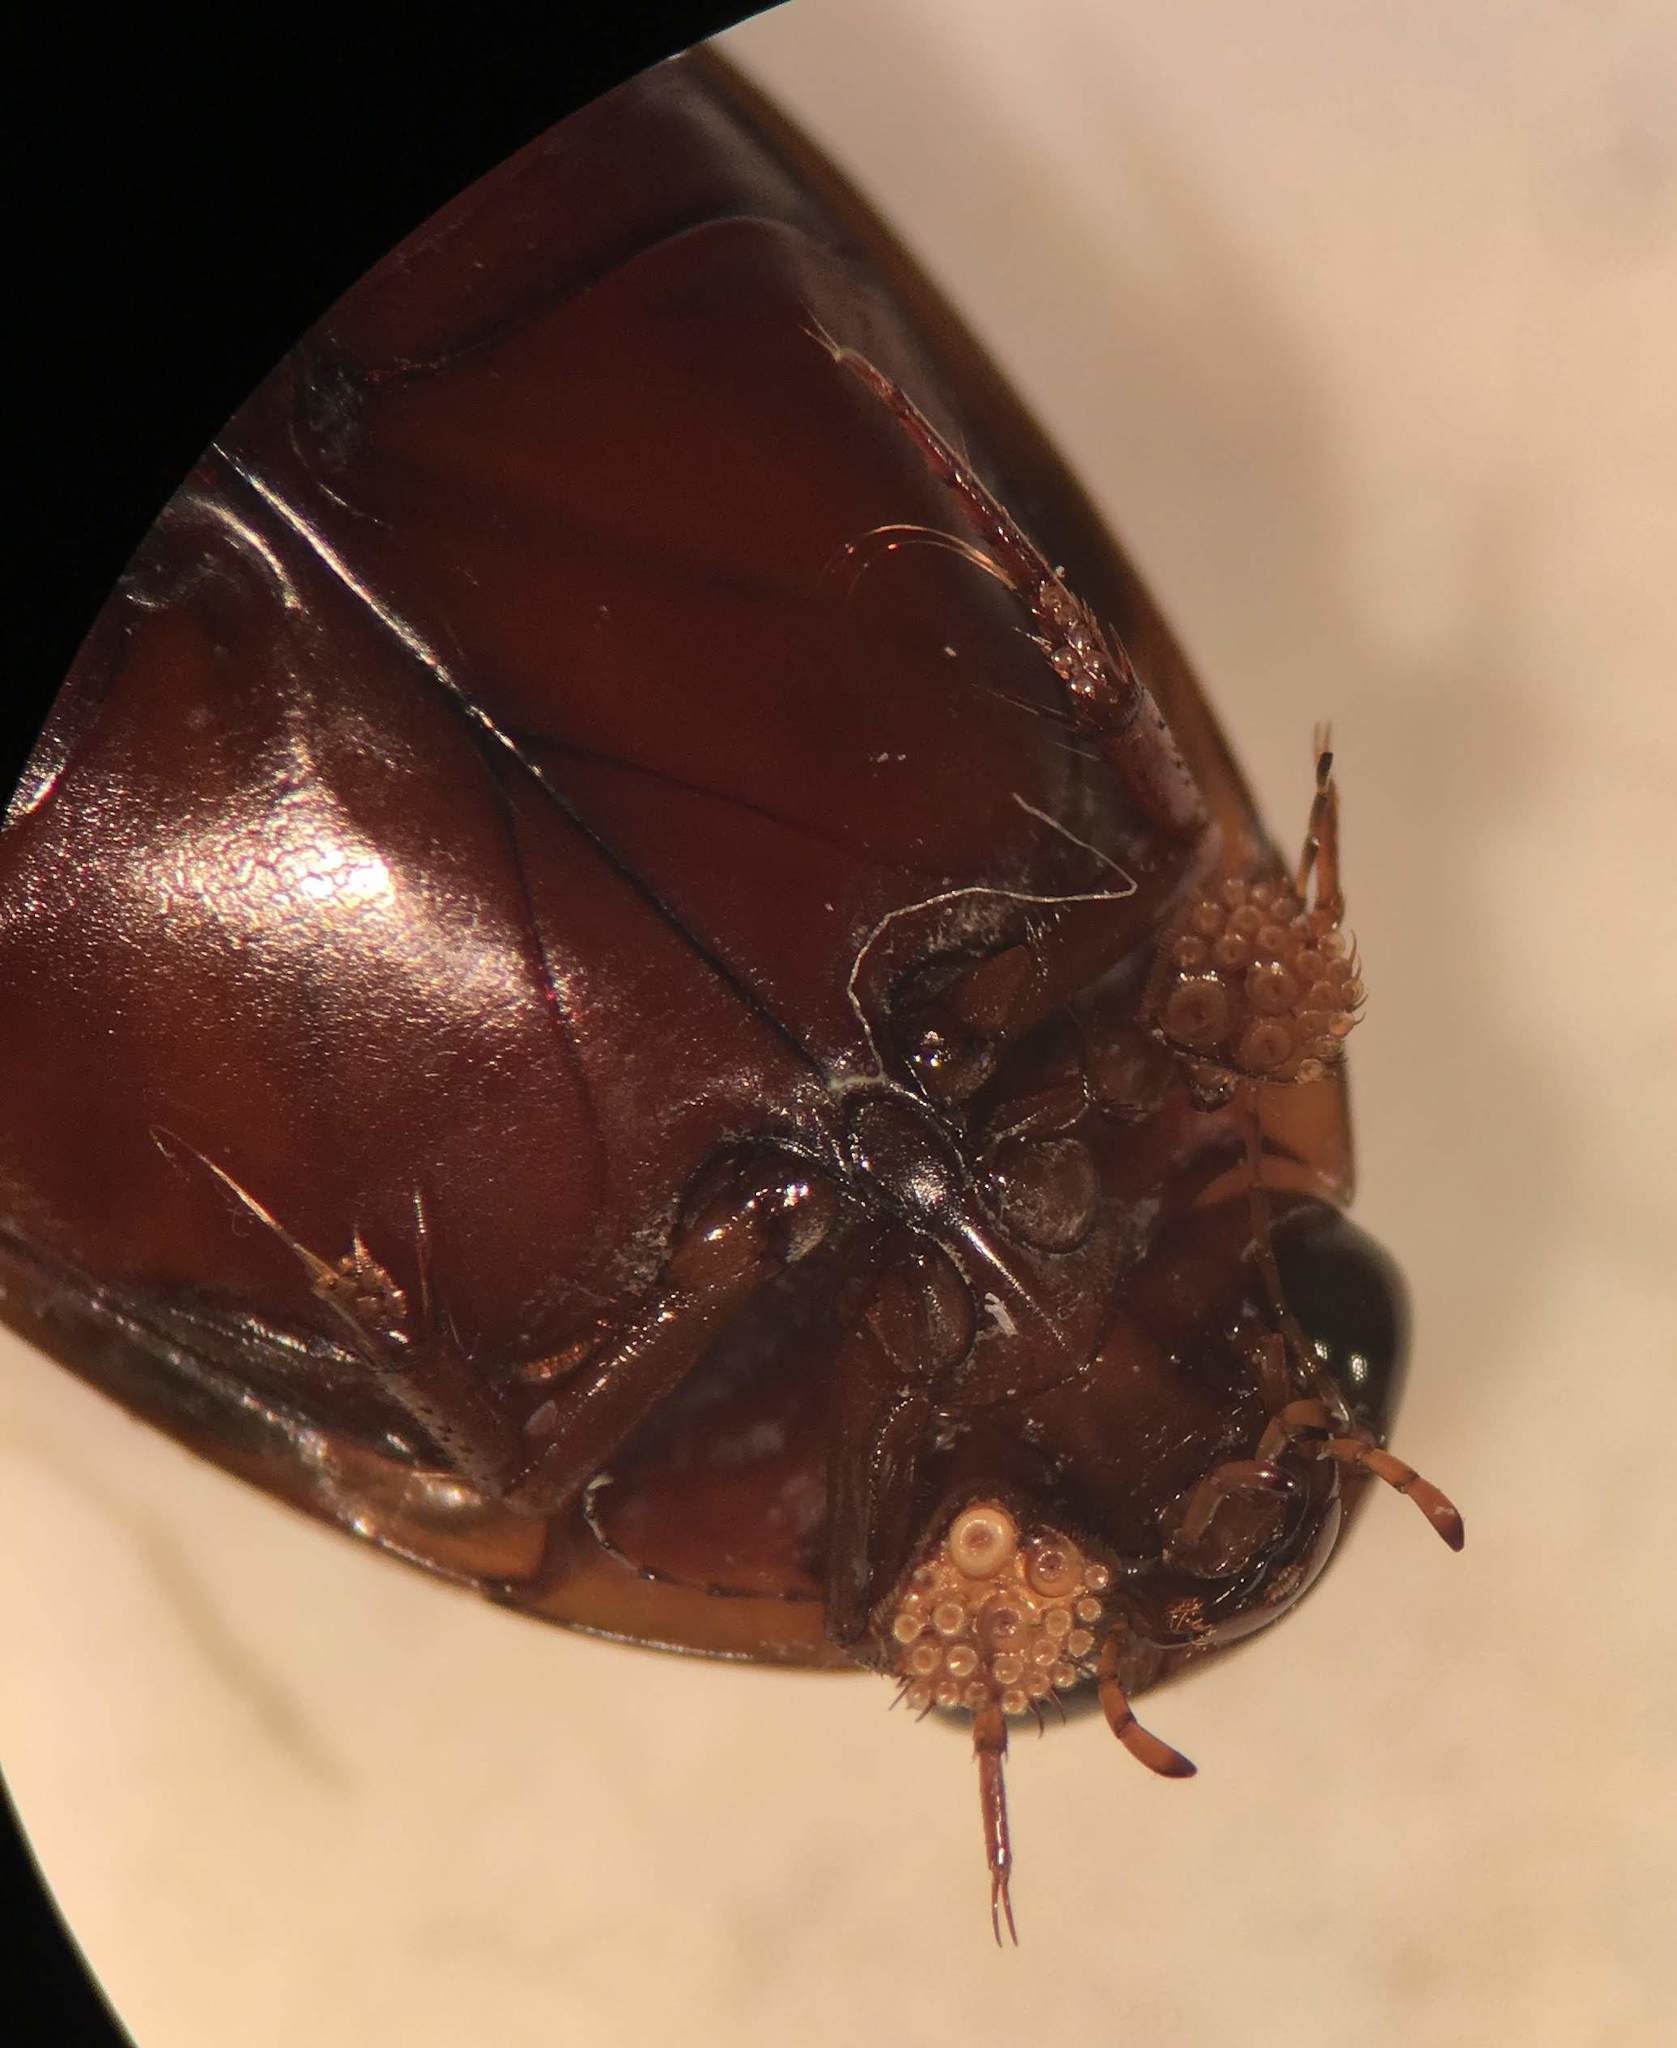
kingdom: Animalia
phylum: Arthropoda
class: Insecta
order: Coleoptera
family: Dytiscidae
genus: Graphoderus
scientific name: Graphoderus liberus
